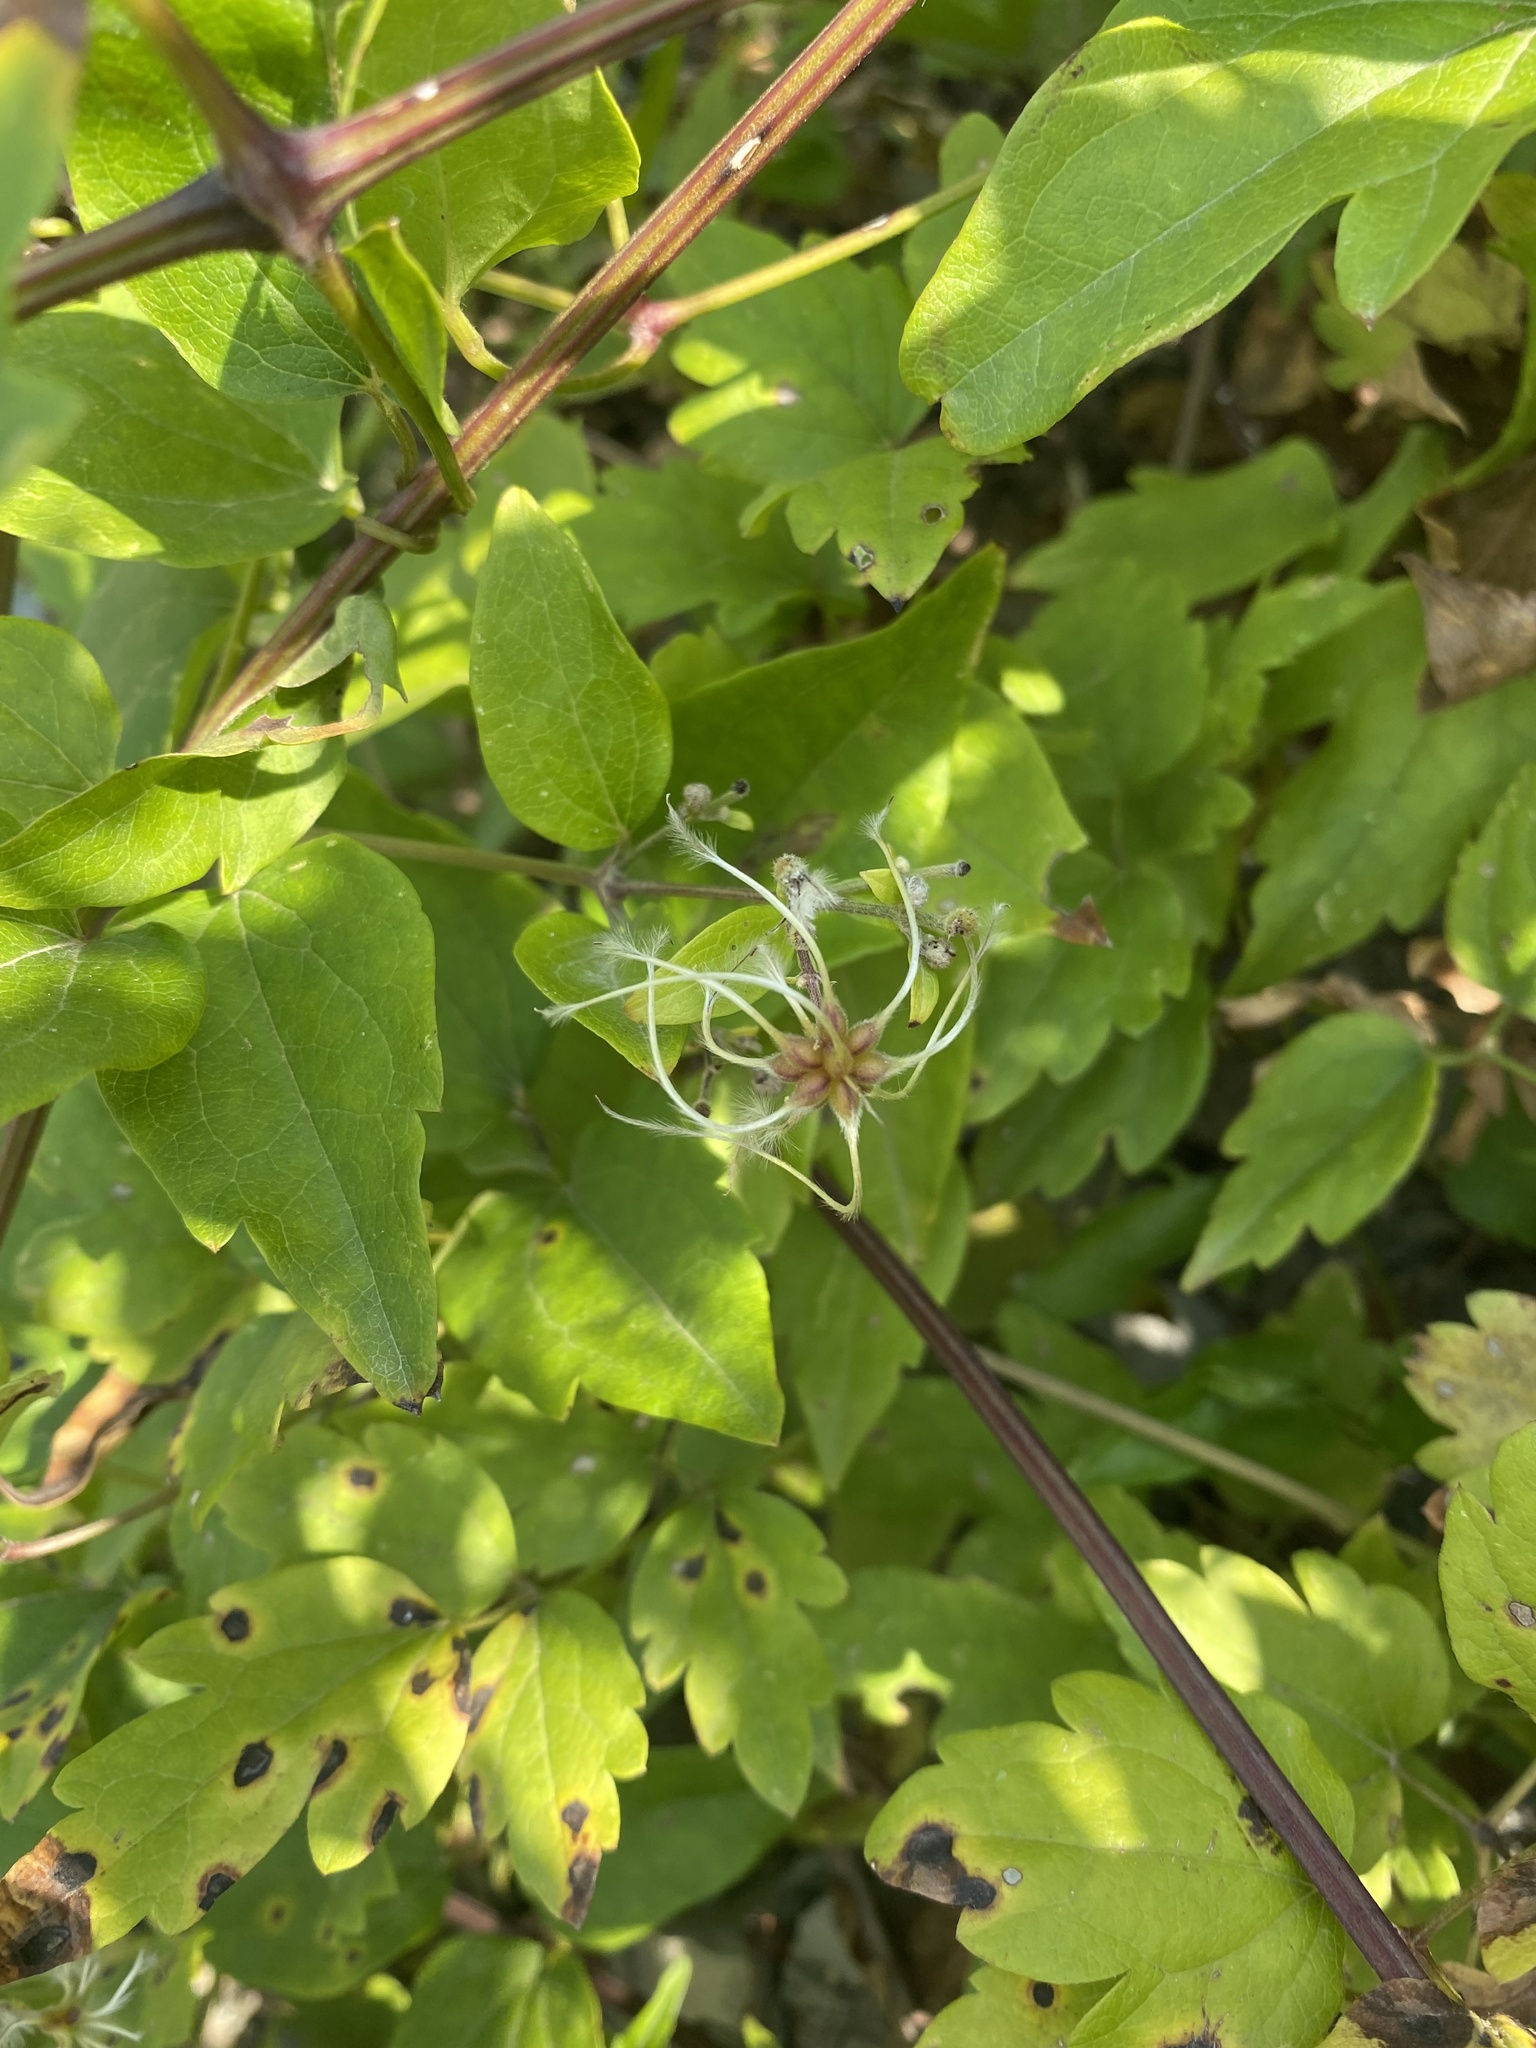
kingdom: Plantae
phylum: Tracheophyta
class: Magnoliopsida
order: Ranunculales
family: Ranunculaceae
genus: Clematis
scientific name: Clematis vitalba
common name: Evergreen clematis
